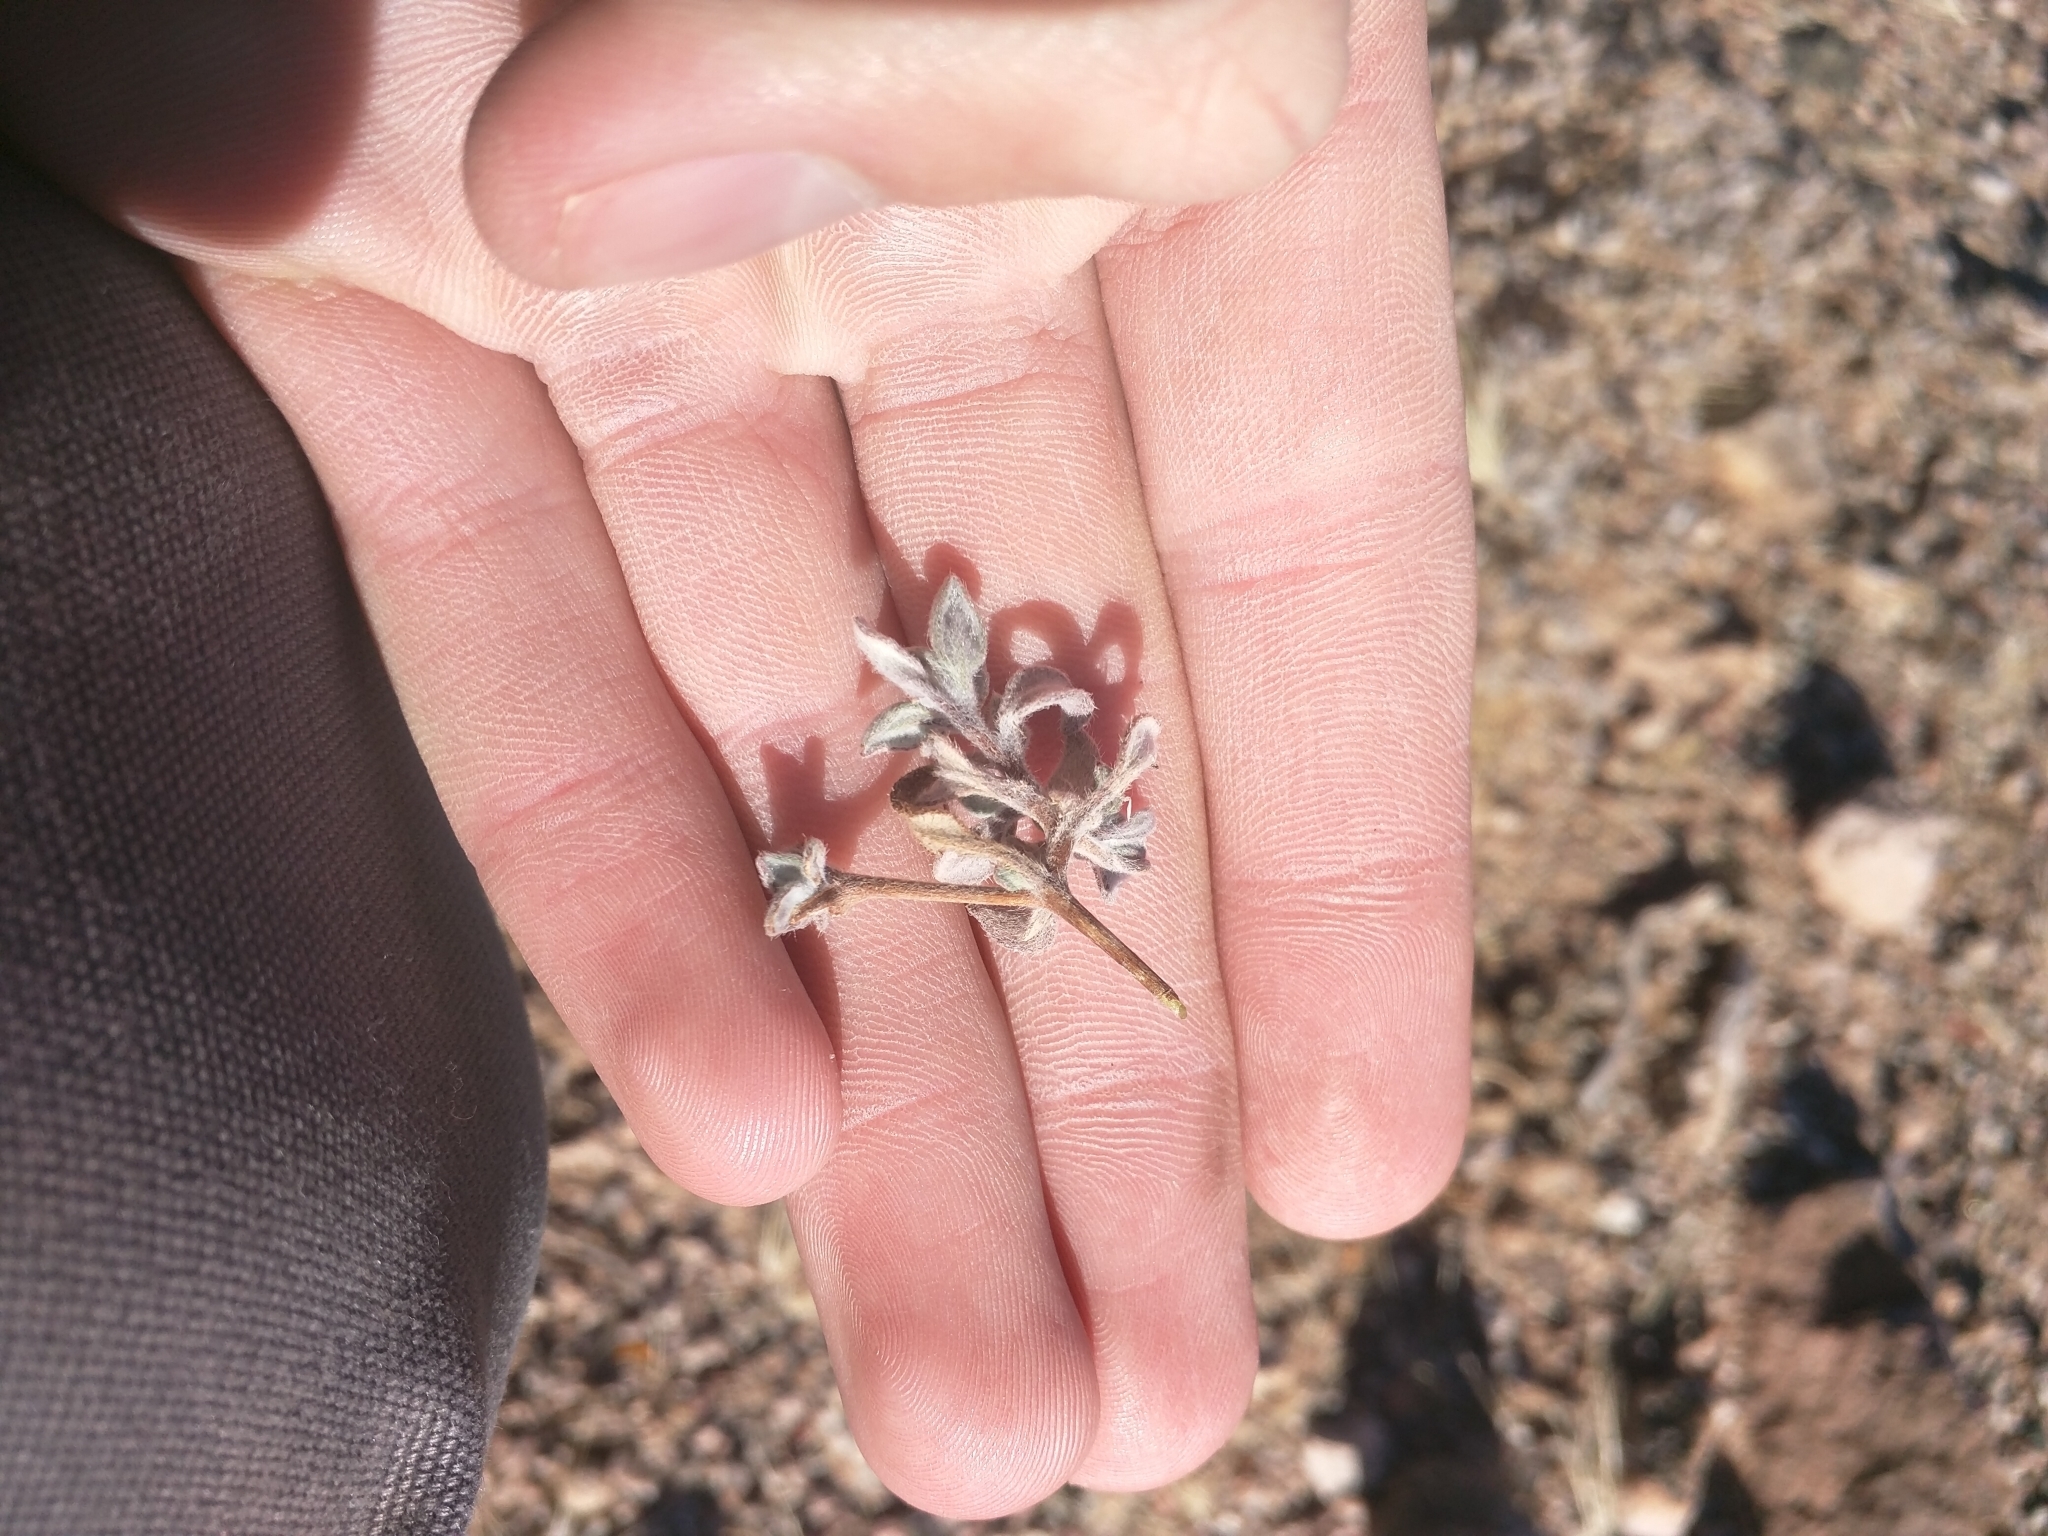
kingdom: Plantae
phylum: Tracheophyta
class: Magnoliopsida
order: Boraginales
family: Ehretiaceae
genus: Tiquilia
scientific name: Tiquilia canescens
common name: Hairy tiquilia
